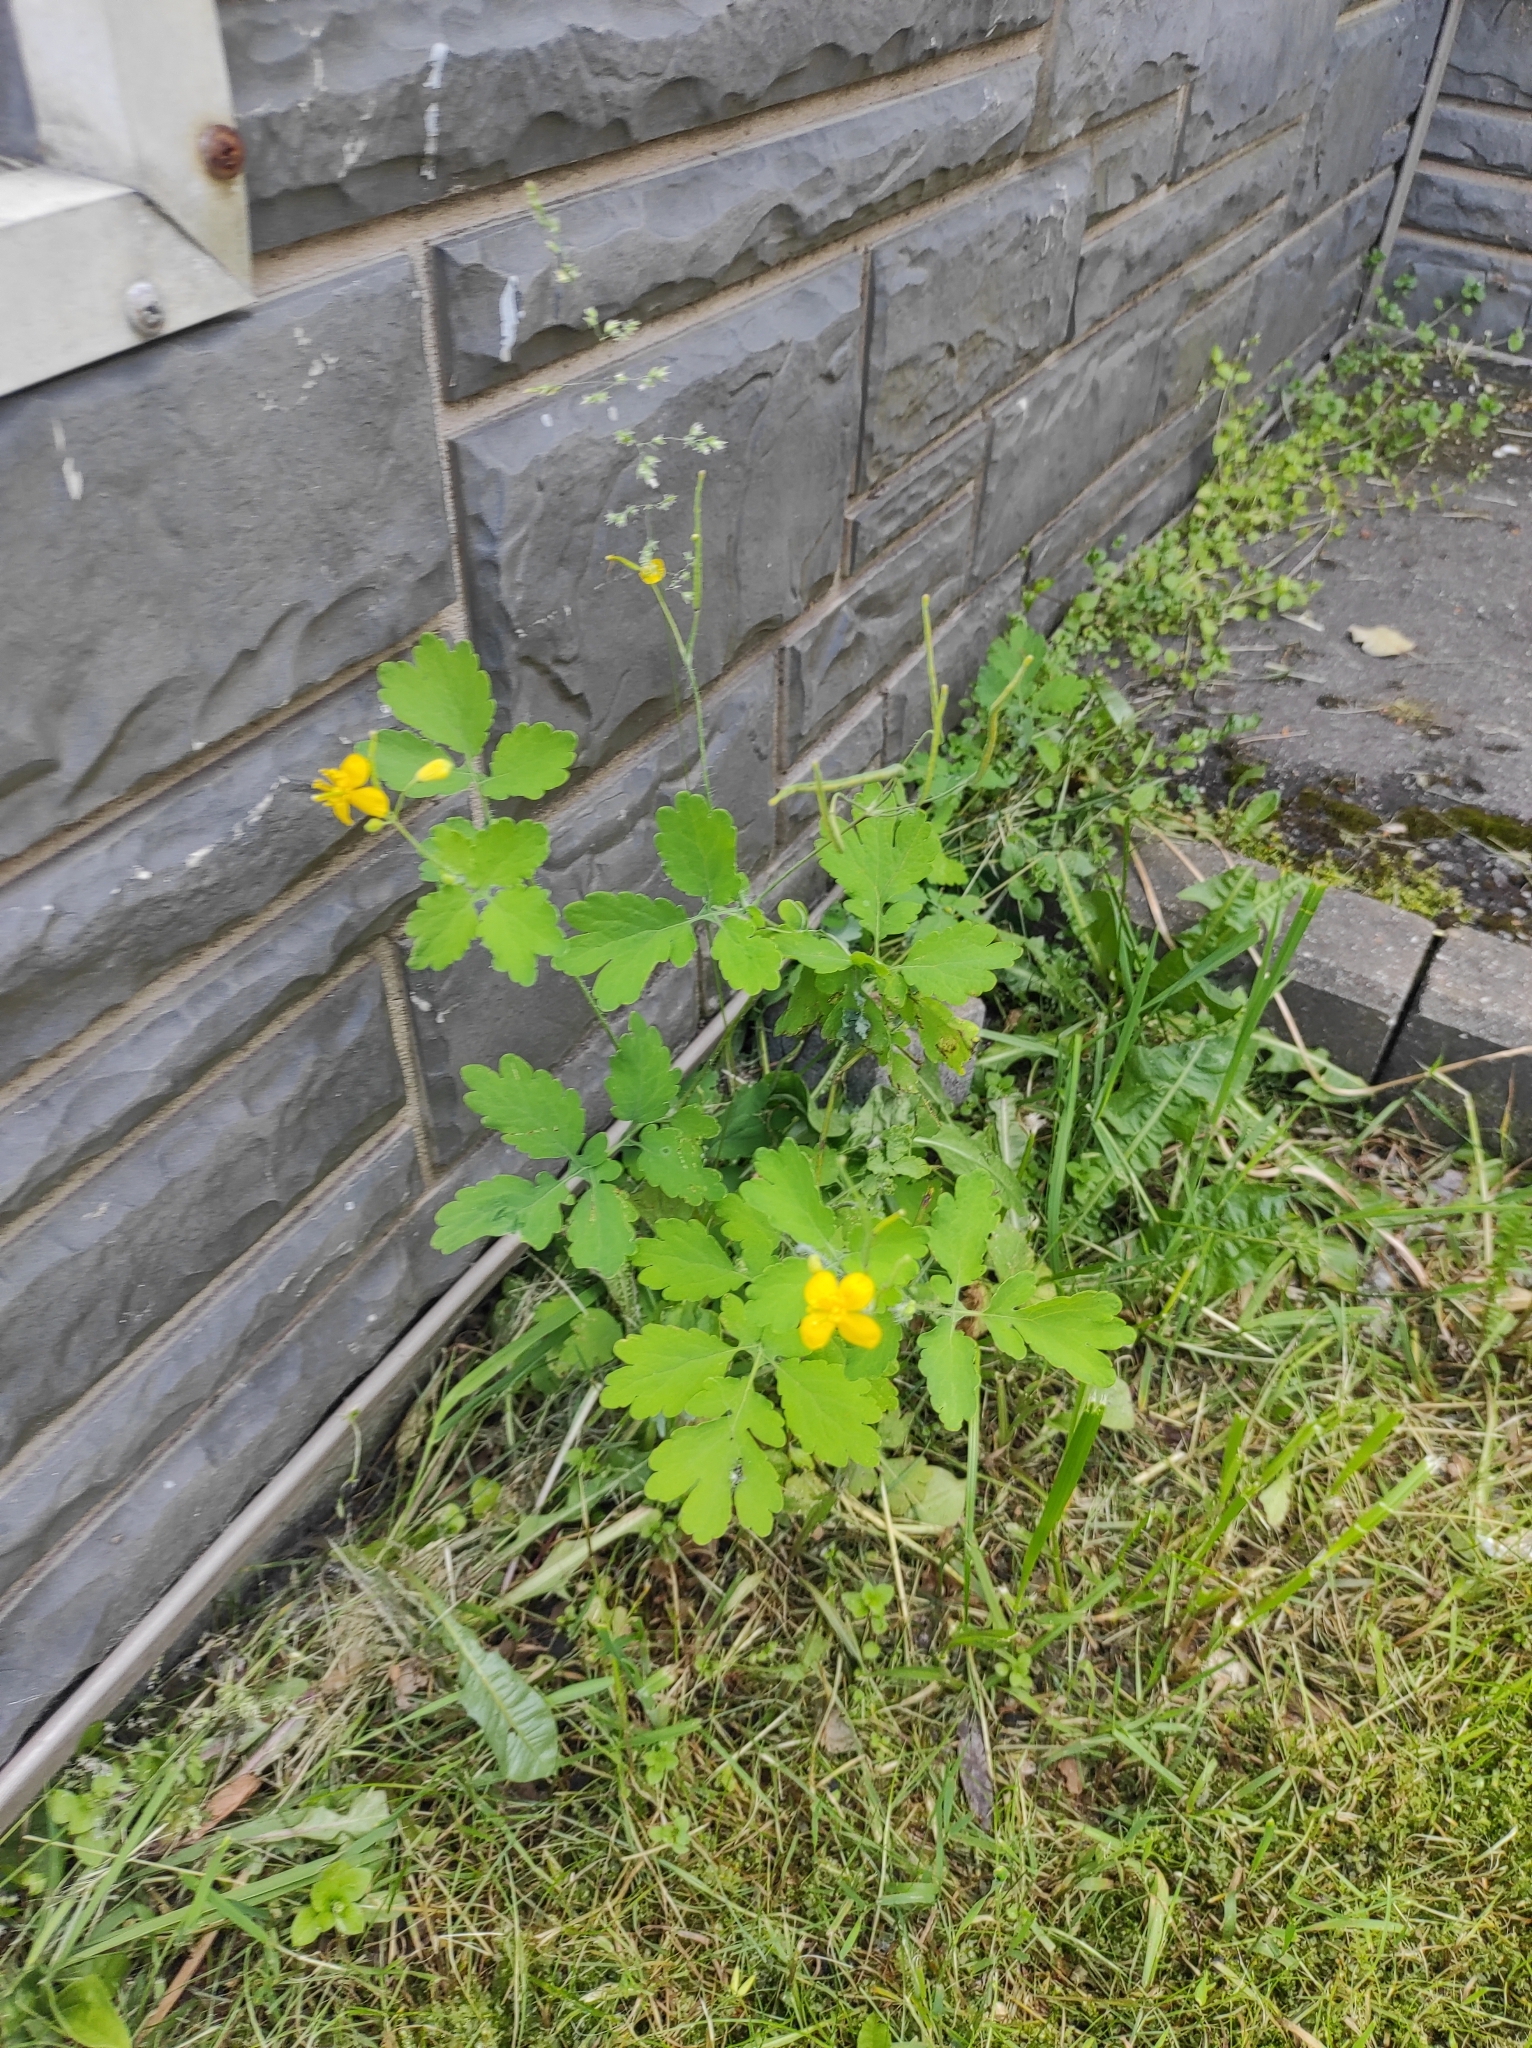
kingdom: Plantae
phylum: Tracheophyta
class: Magnoliopsida
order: Ranunculales
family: Papaveraceae
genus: Chelidonium
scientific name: Chelidonium majus
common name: Greater celandine
